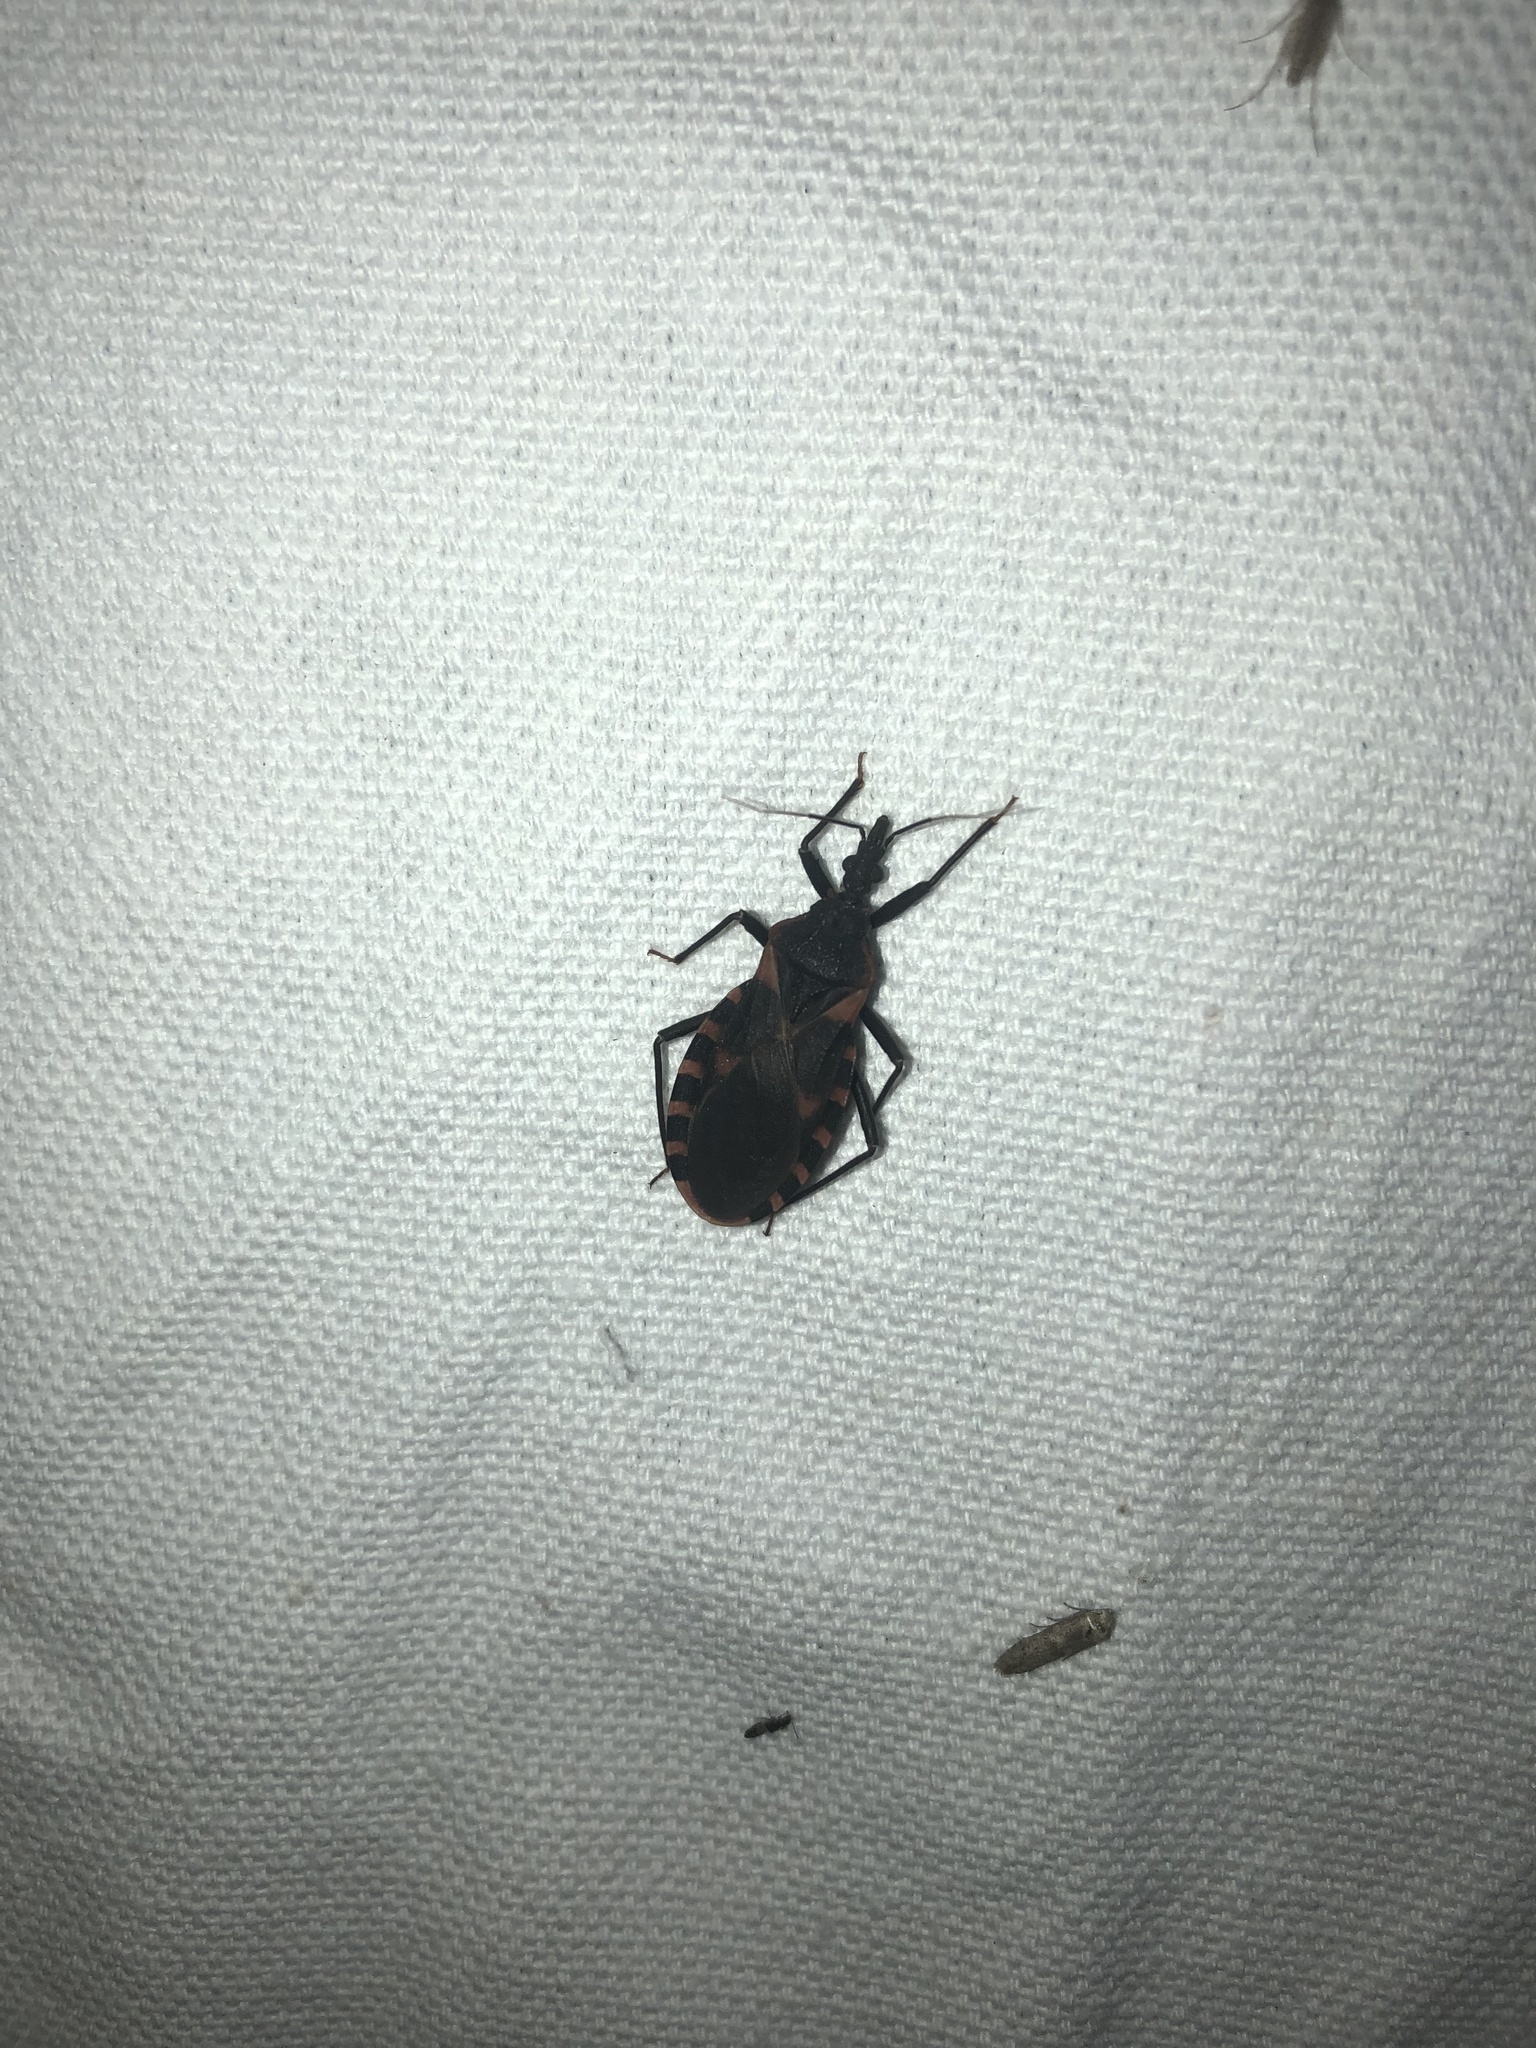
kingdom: Animalia
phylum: Arthropoda
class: Insecta
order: Hemiptera
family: Reduviidae
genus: Triatoma
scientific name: Triatoma sanguisuga
